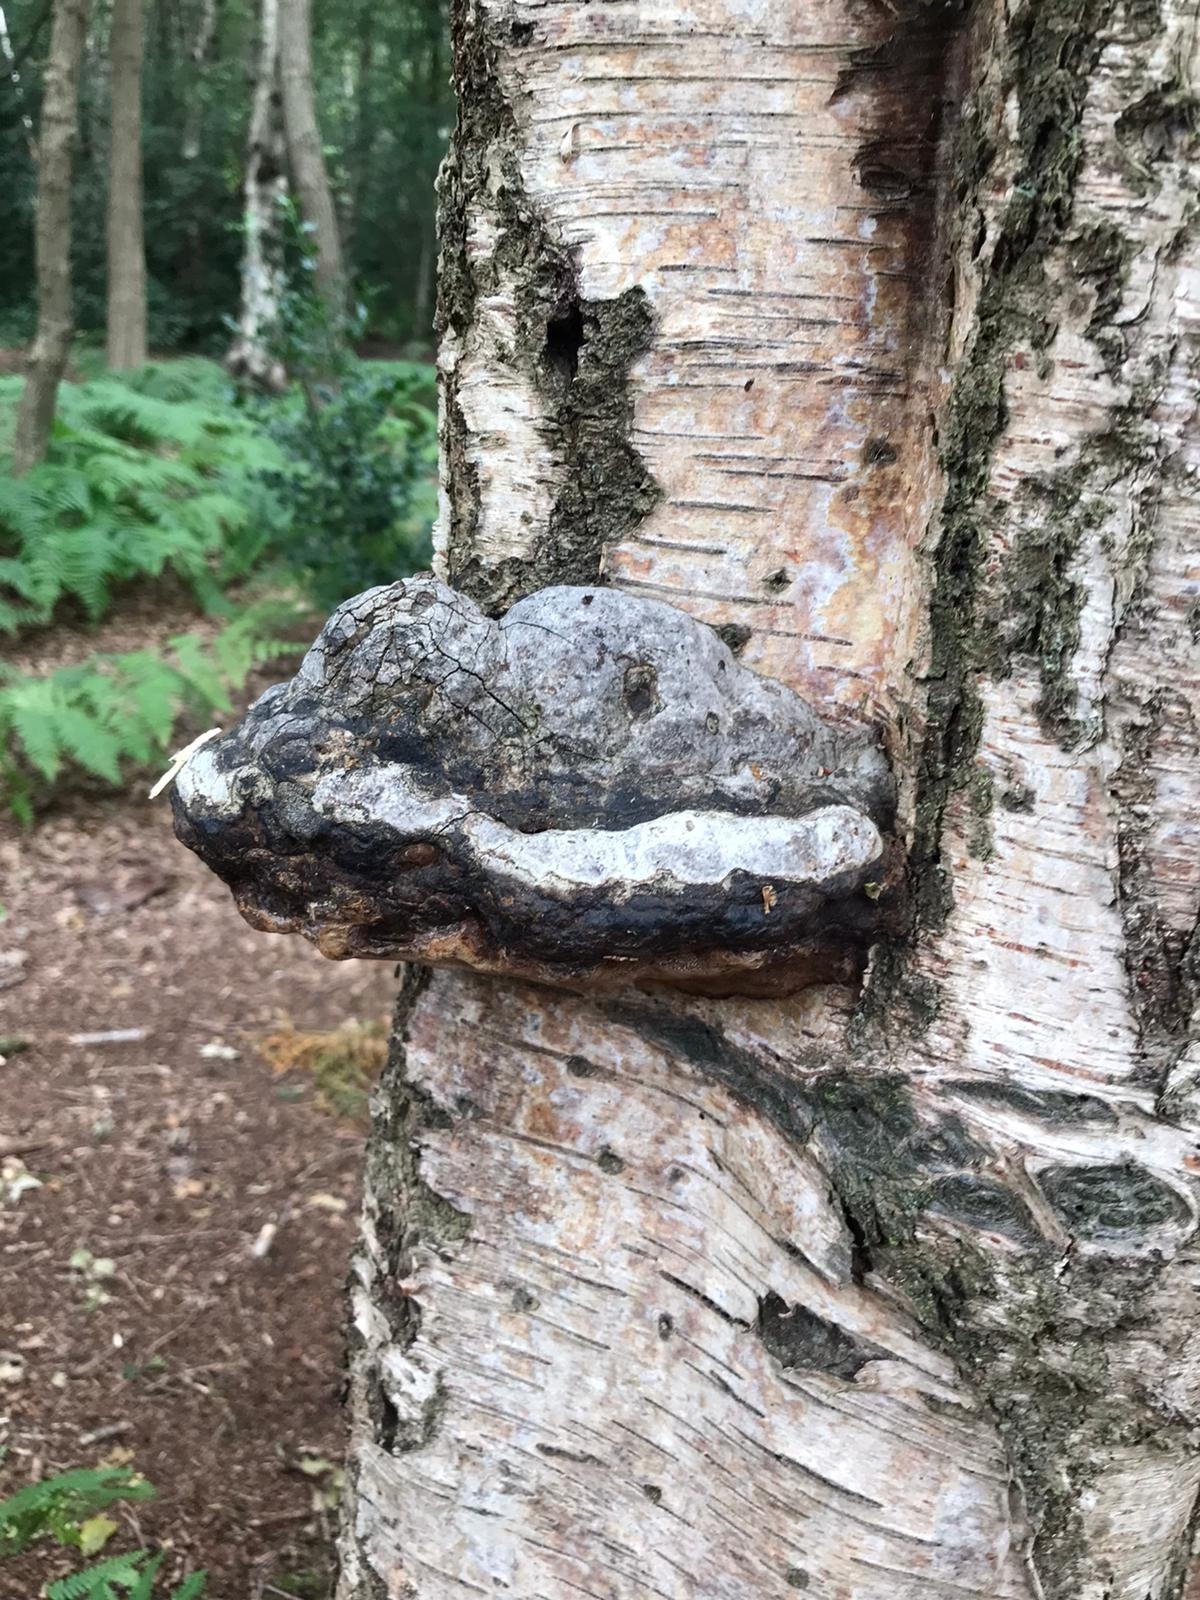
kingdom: Fungi
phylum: Basidiomycota
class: Agaricomycetes
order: Polyporales
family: Polyporaceae
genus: Fomes
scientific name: Fomes fomentarius
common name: Hoof fungus
